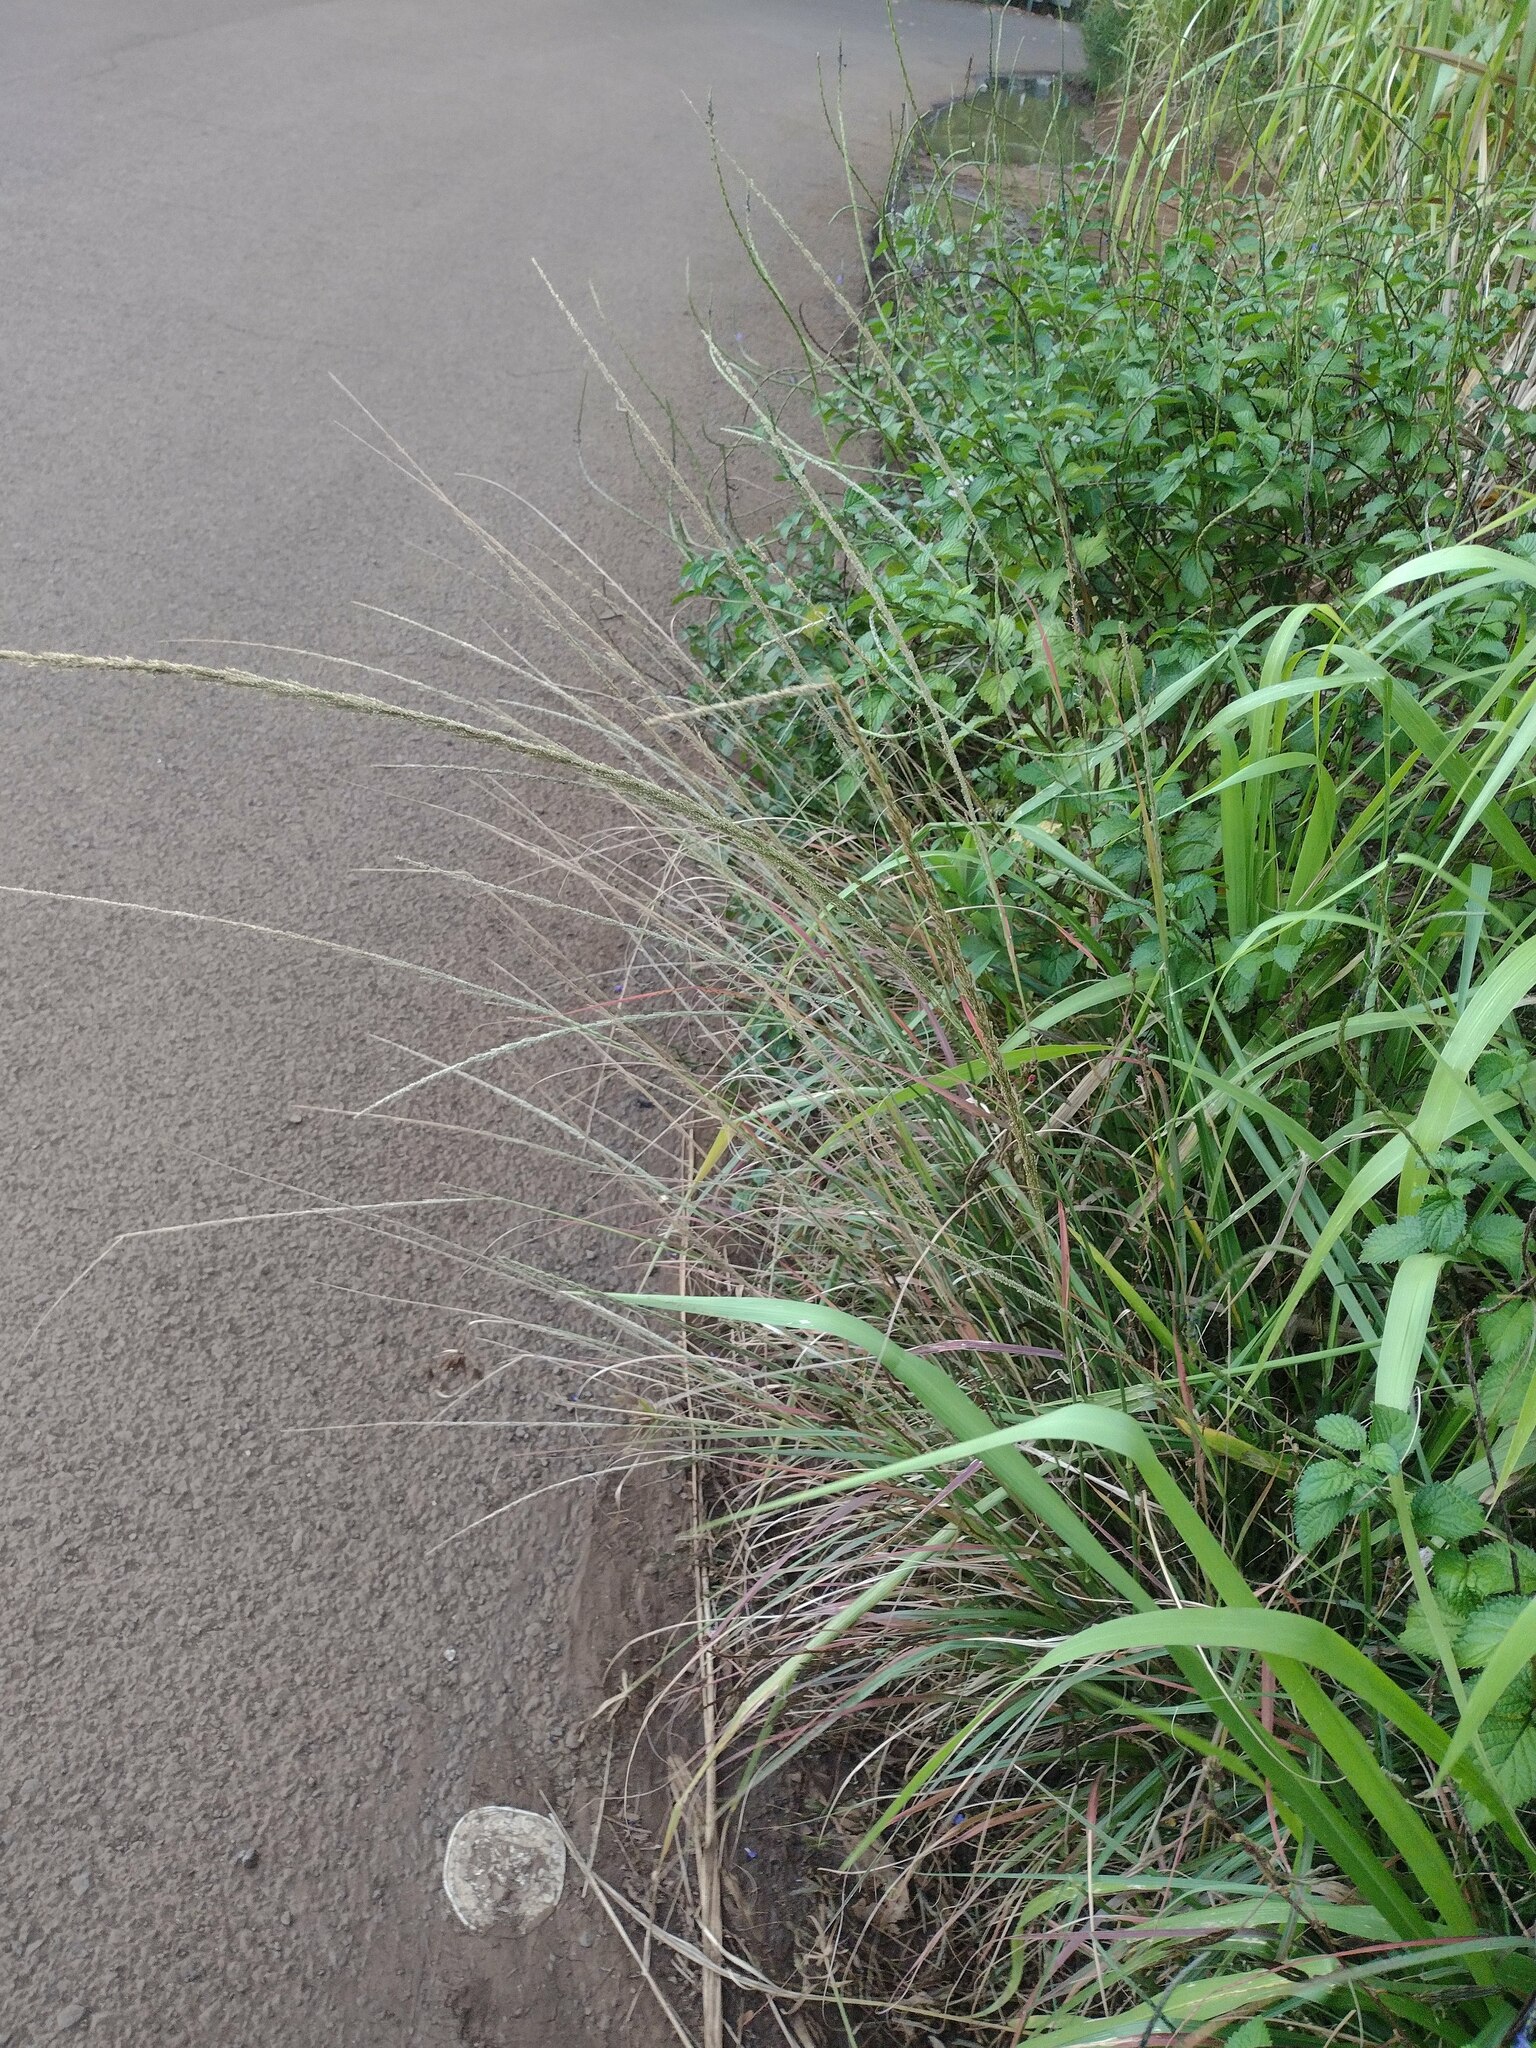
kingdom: Plantae
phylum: Tracheophyta
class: Liliopsida
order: Poales
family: Poaceae
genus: Sporobolus
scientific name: Sporobolus fertilis
